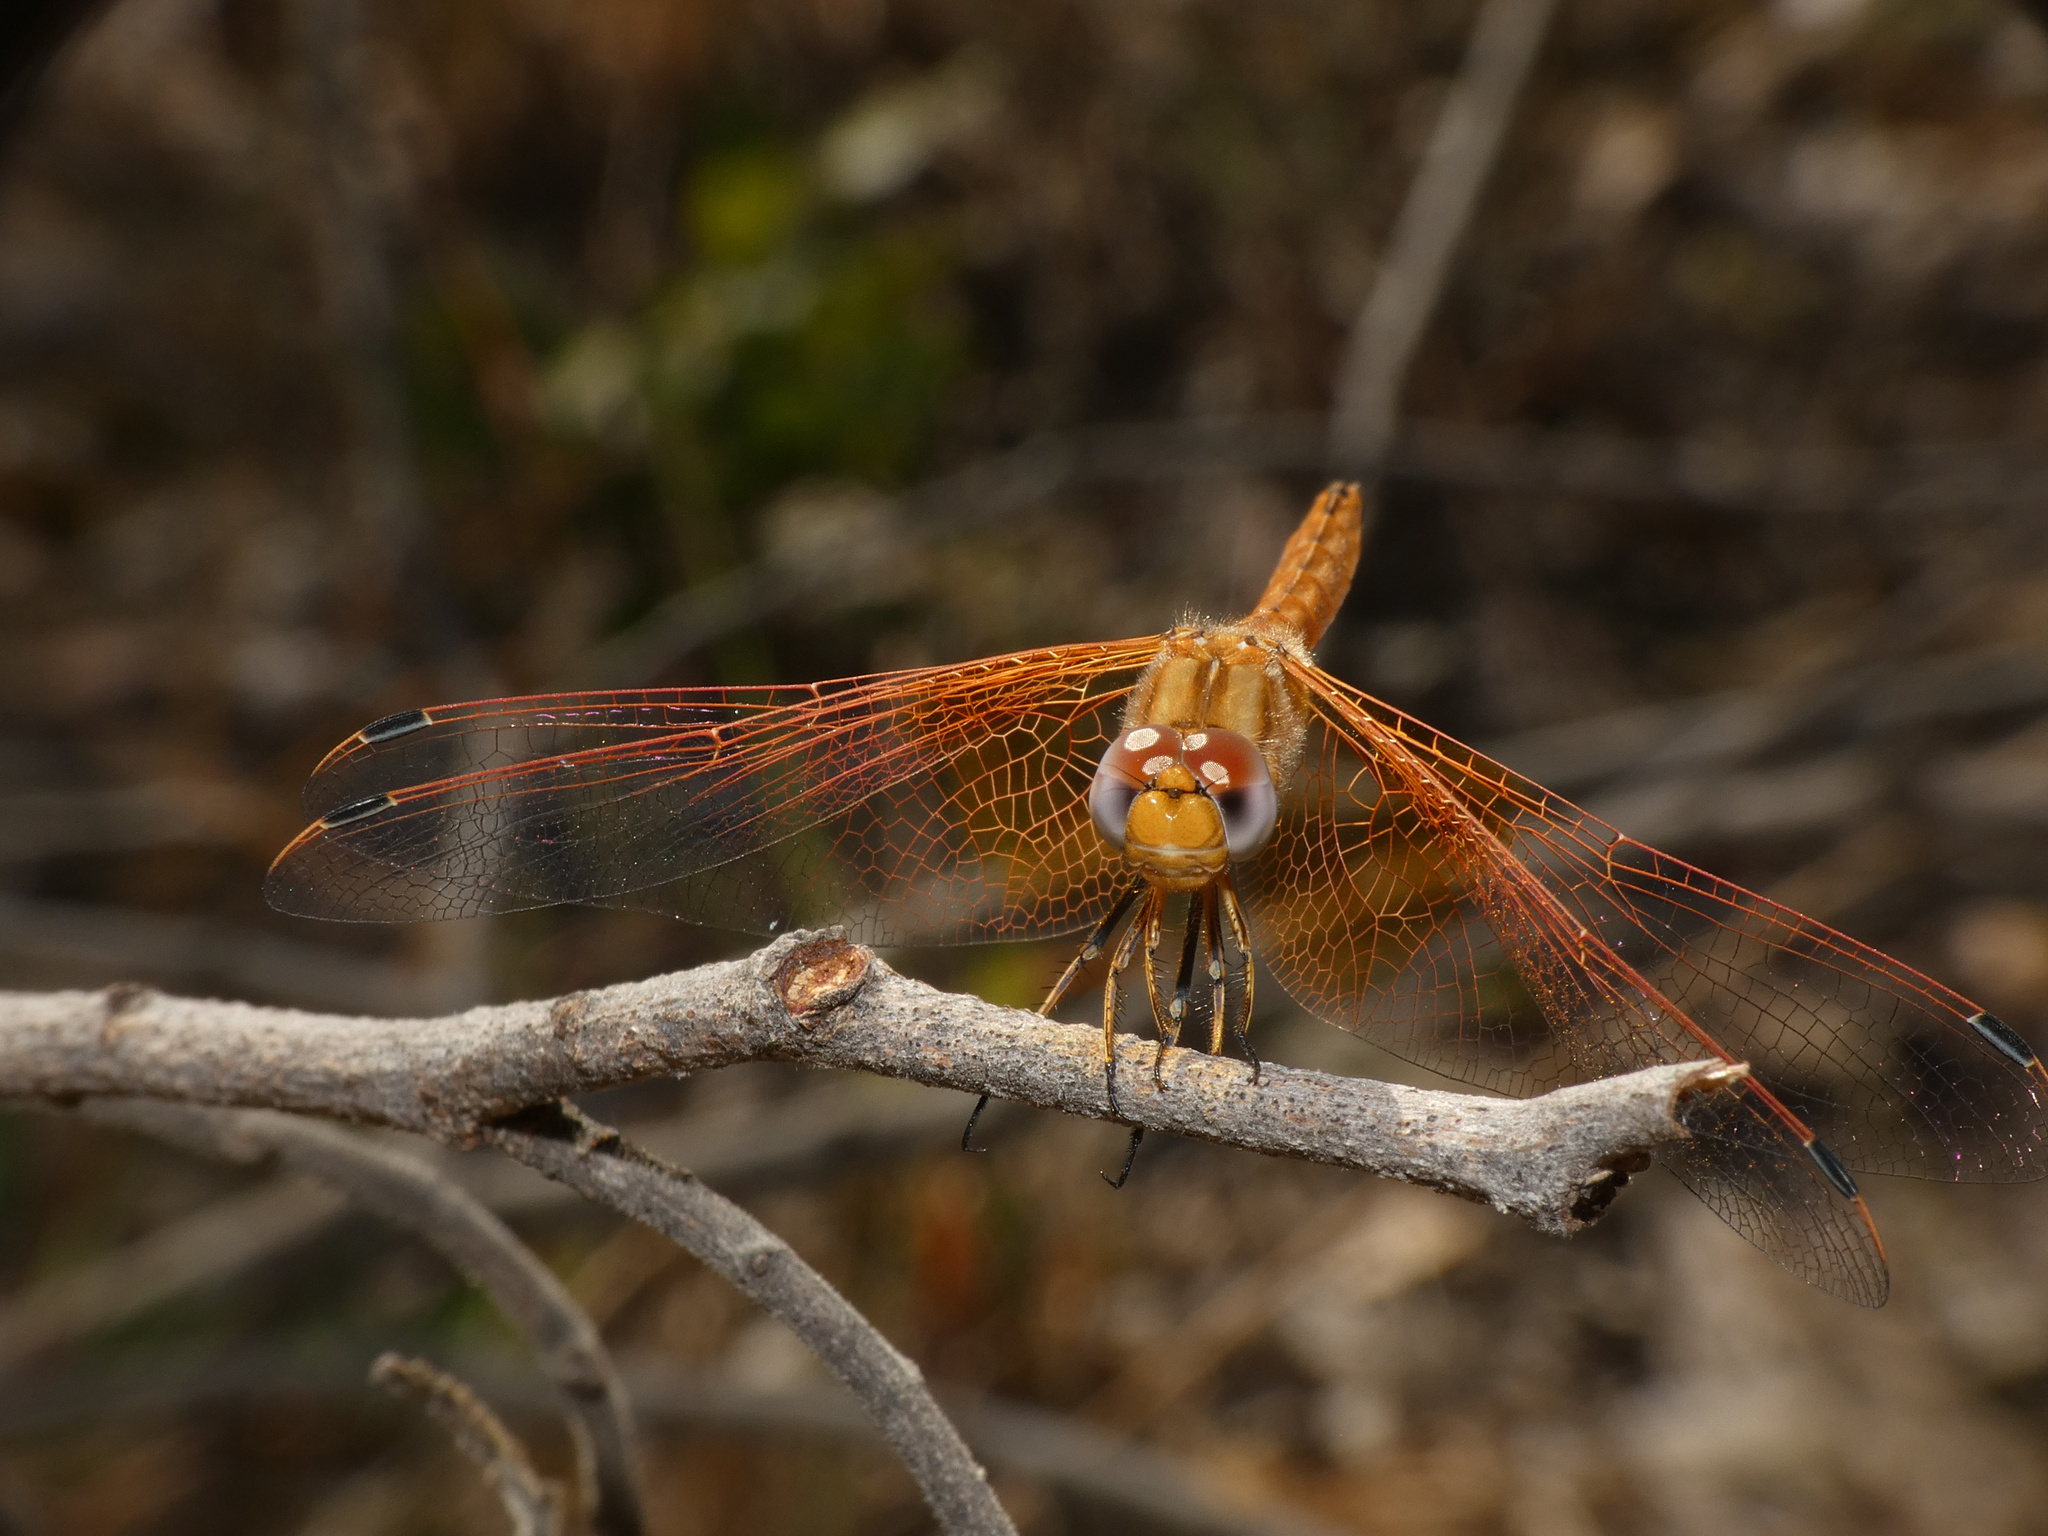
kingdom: Animalia
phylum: Arthropoda
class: Insecta
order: Odonata
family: Libellulidae
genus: Trithemis
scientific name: Trithemis kirbyi
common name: Kirby's dropwing
